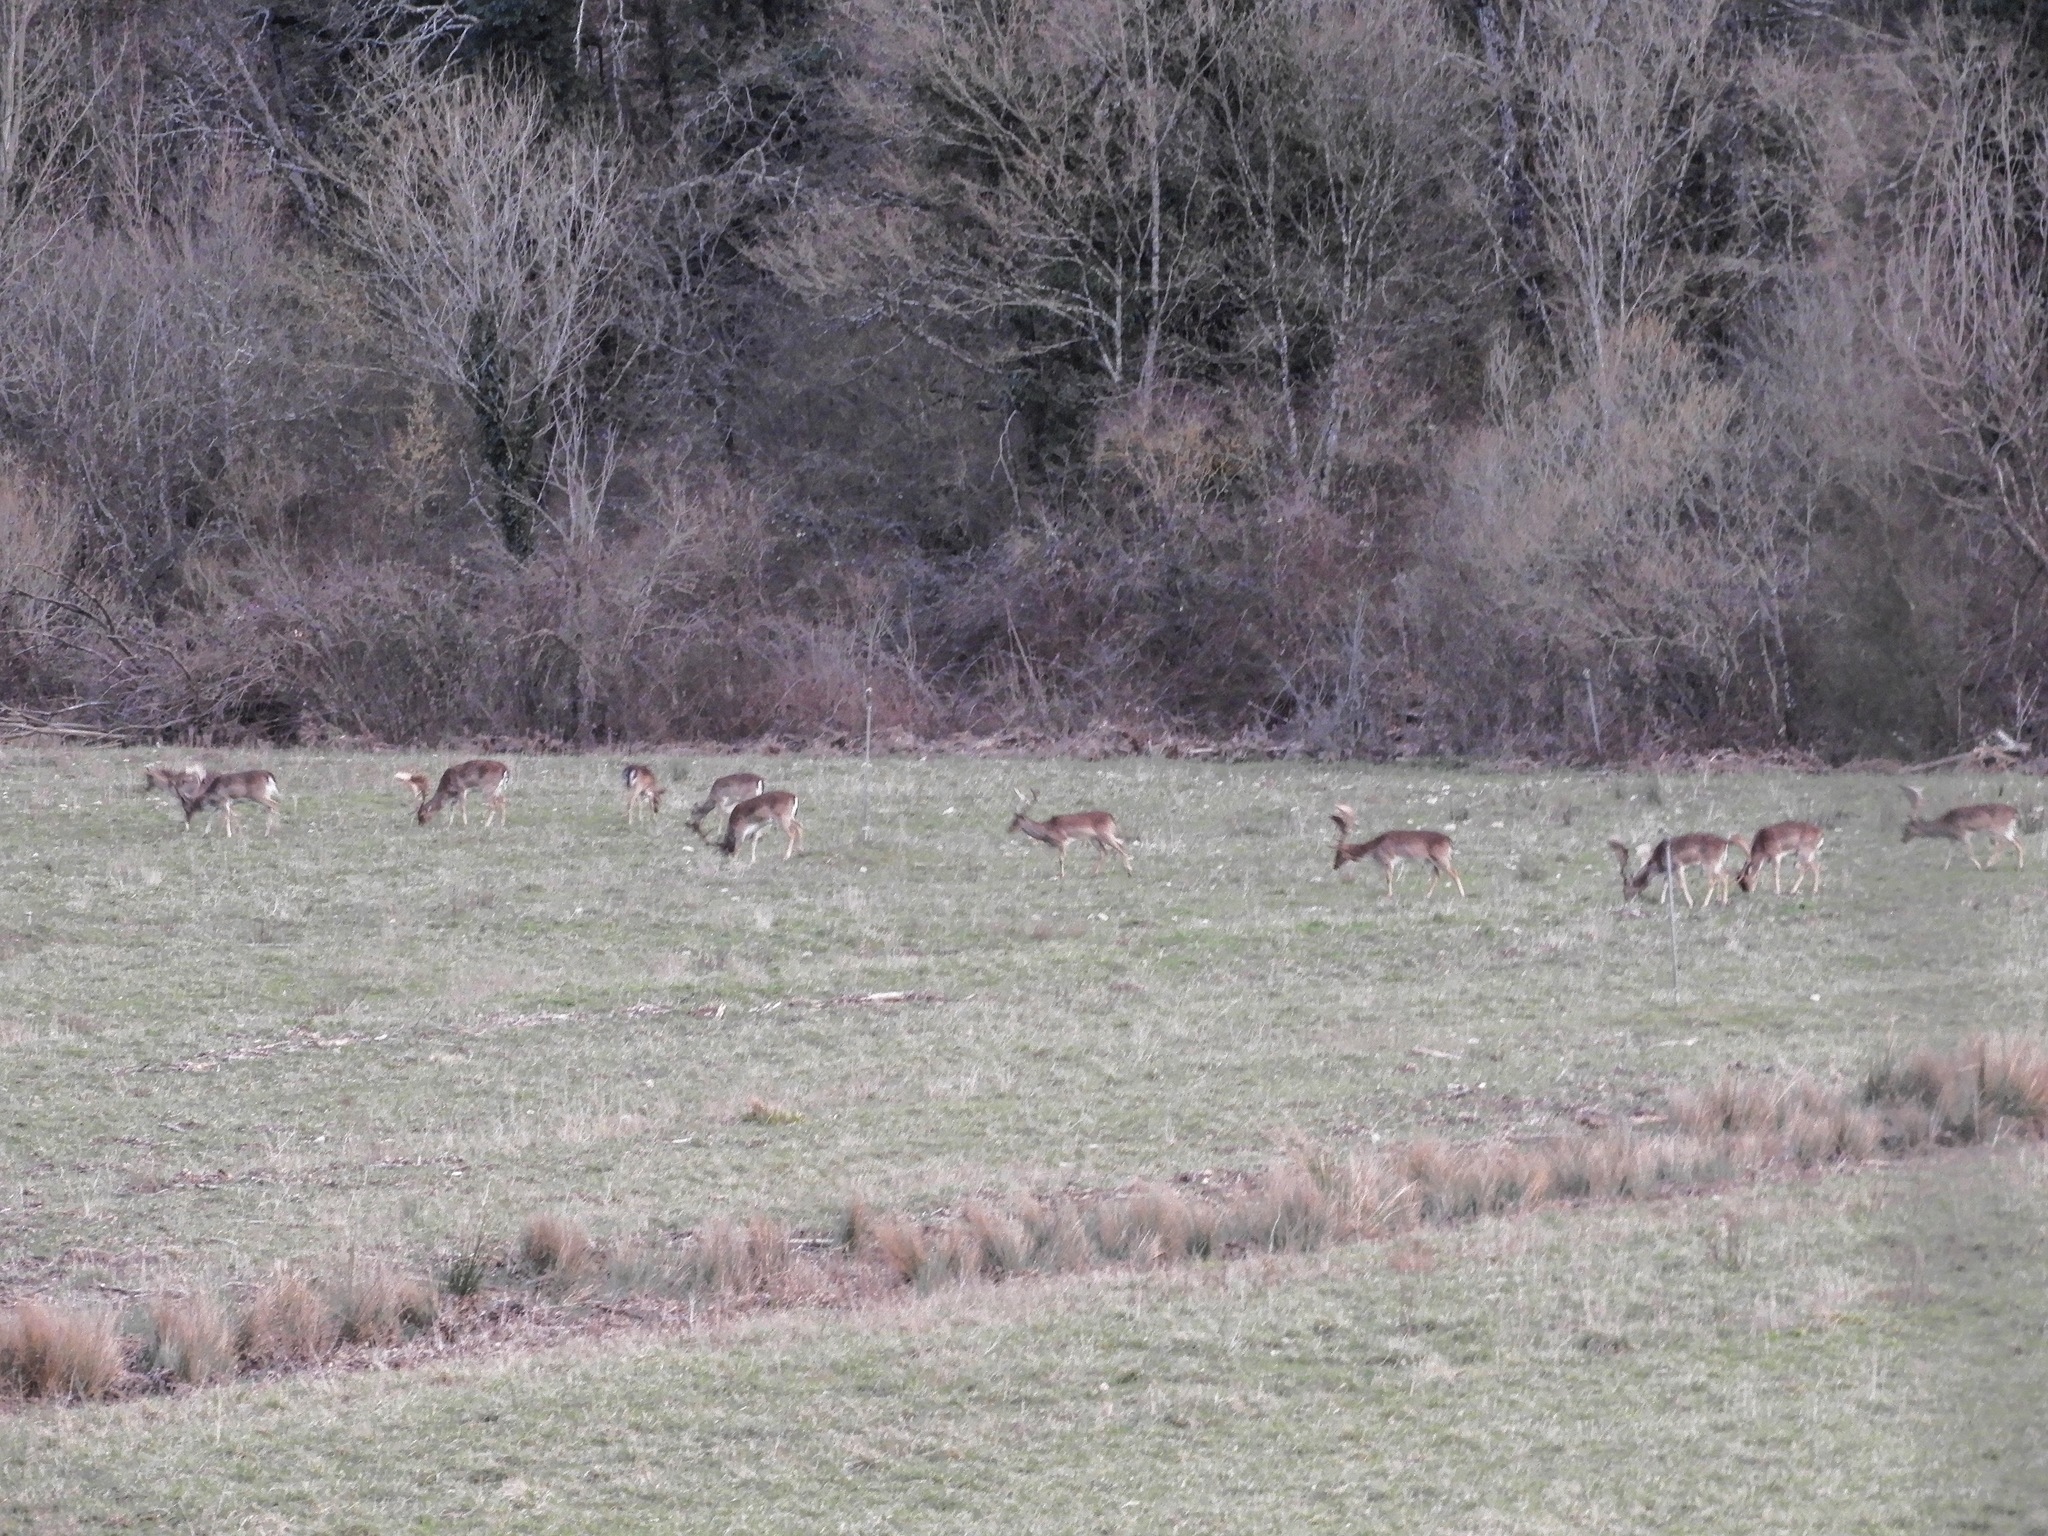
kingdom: Animalia
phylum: Chordata
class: Mammalia
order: Artiodactyla
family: Cervidae
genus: Dama
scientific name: Dama dama
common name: Fallow deer
